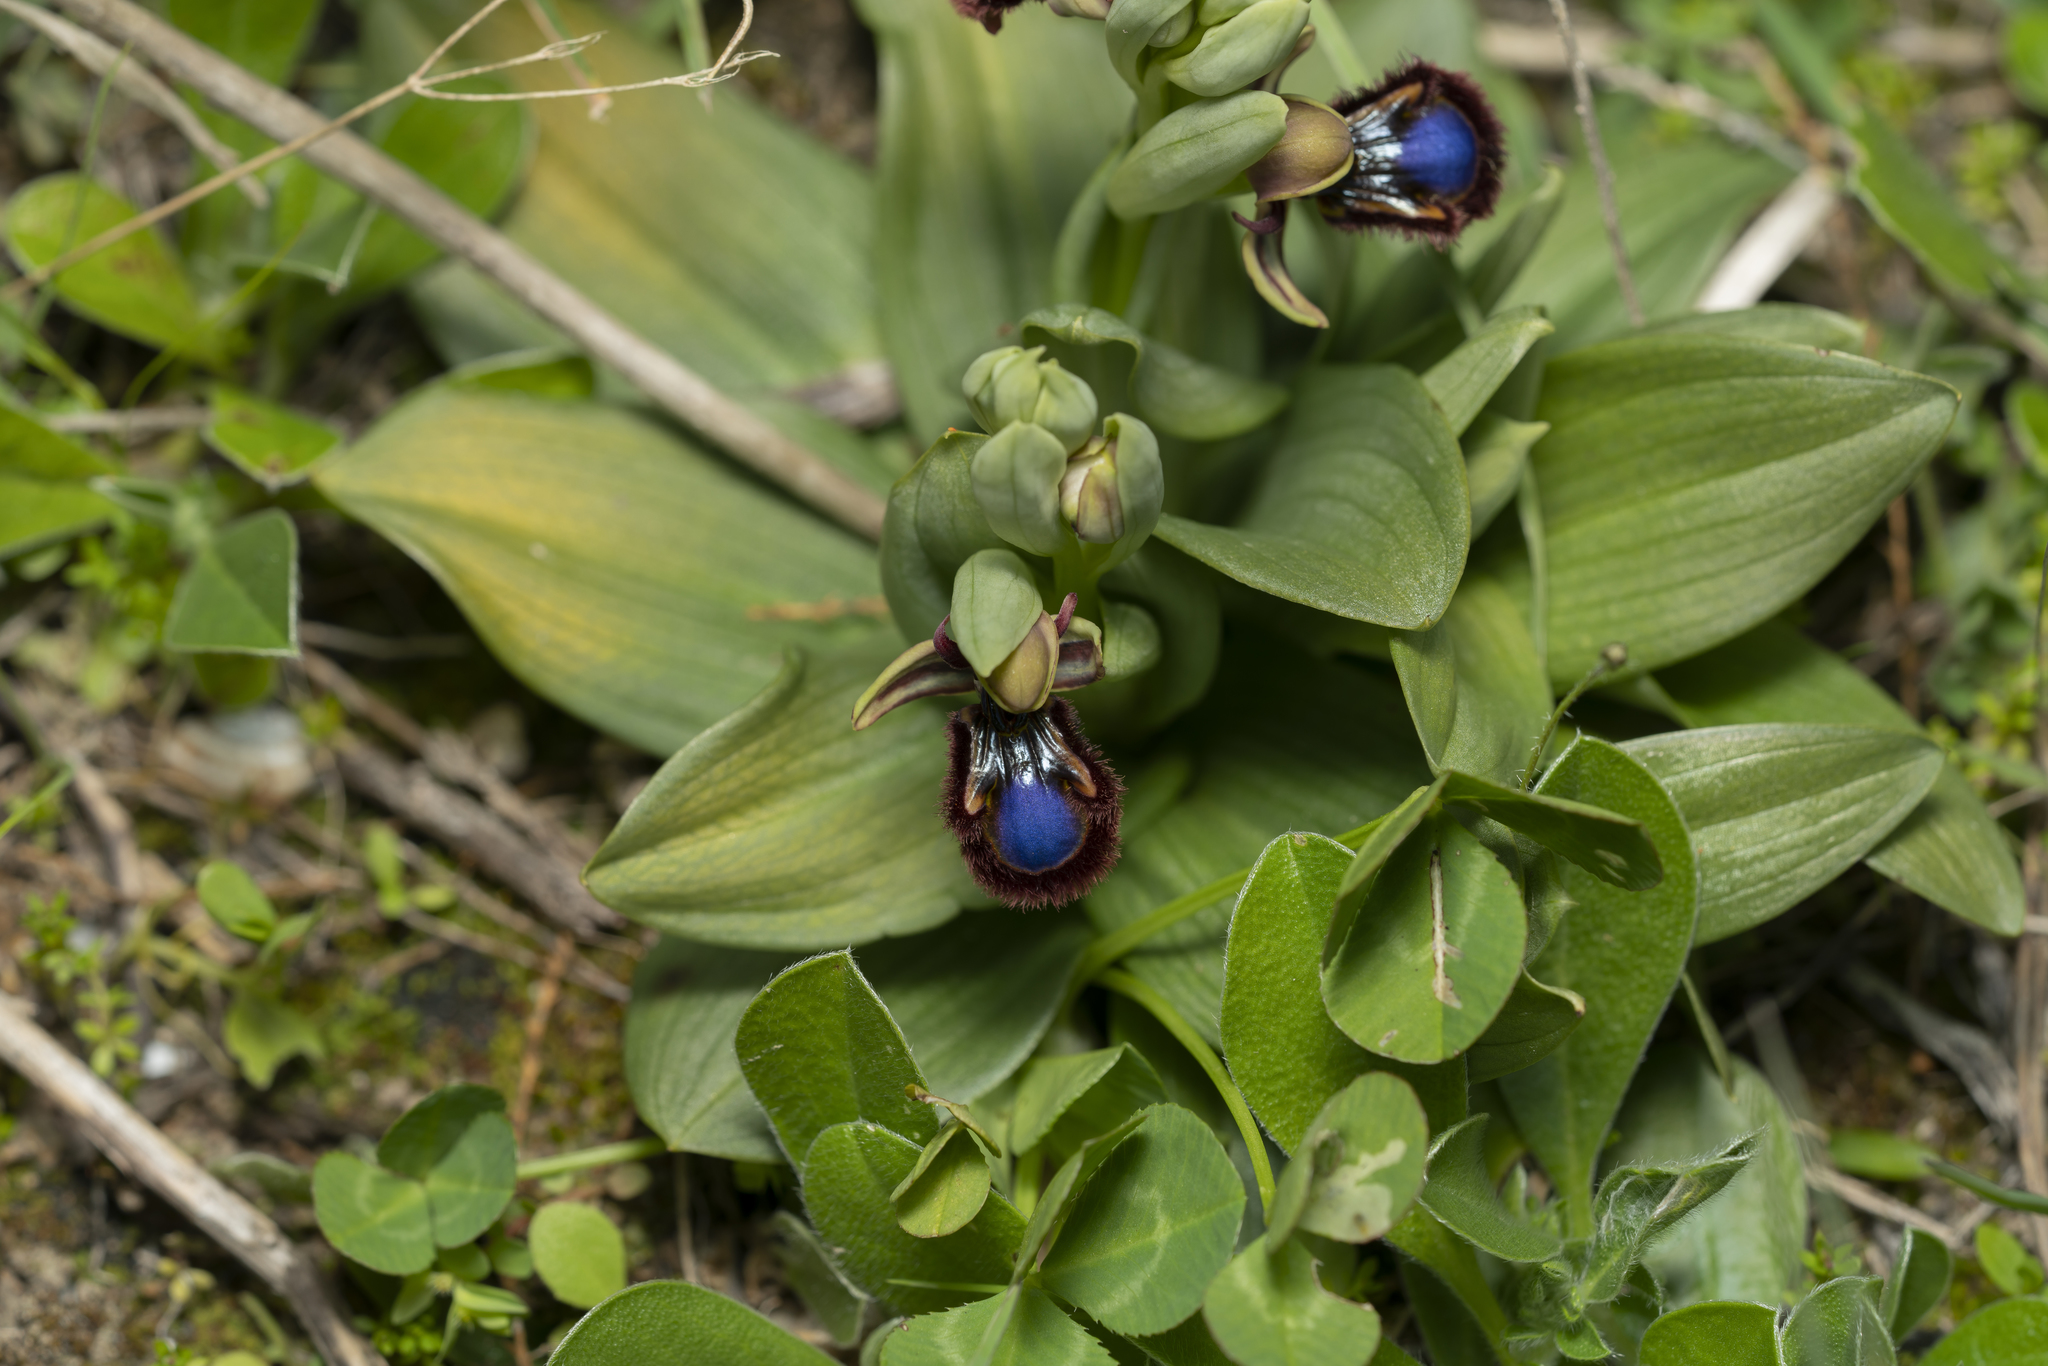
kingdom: Plantae
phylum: Tracheophyta
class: Liliopsida
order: Asparagales
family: Orchidaceae
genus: Ophrys
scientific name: Ophrys speculum
